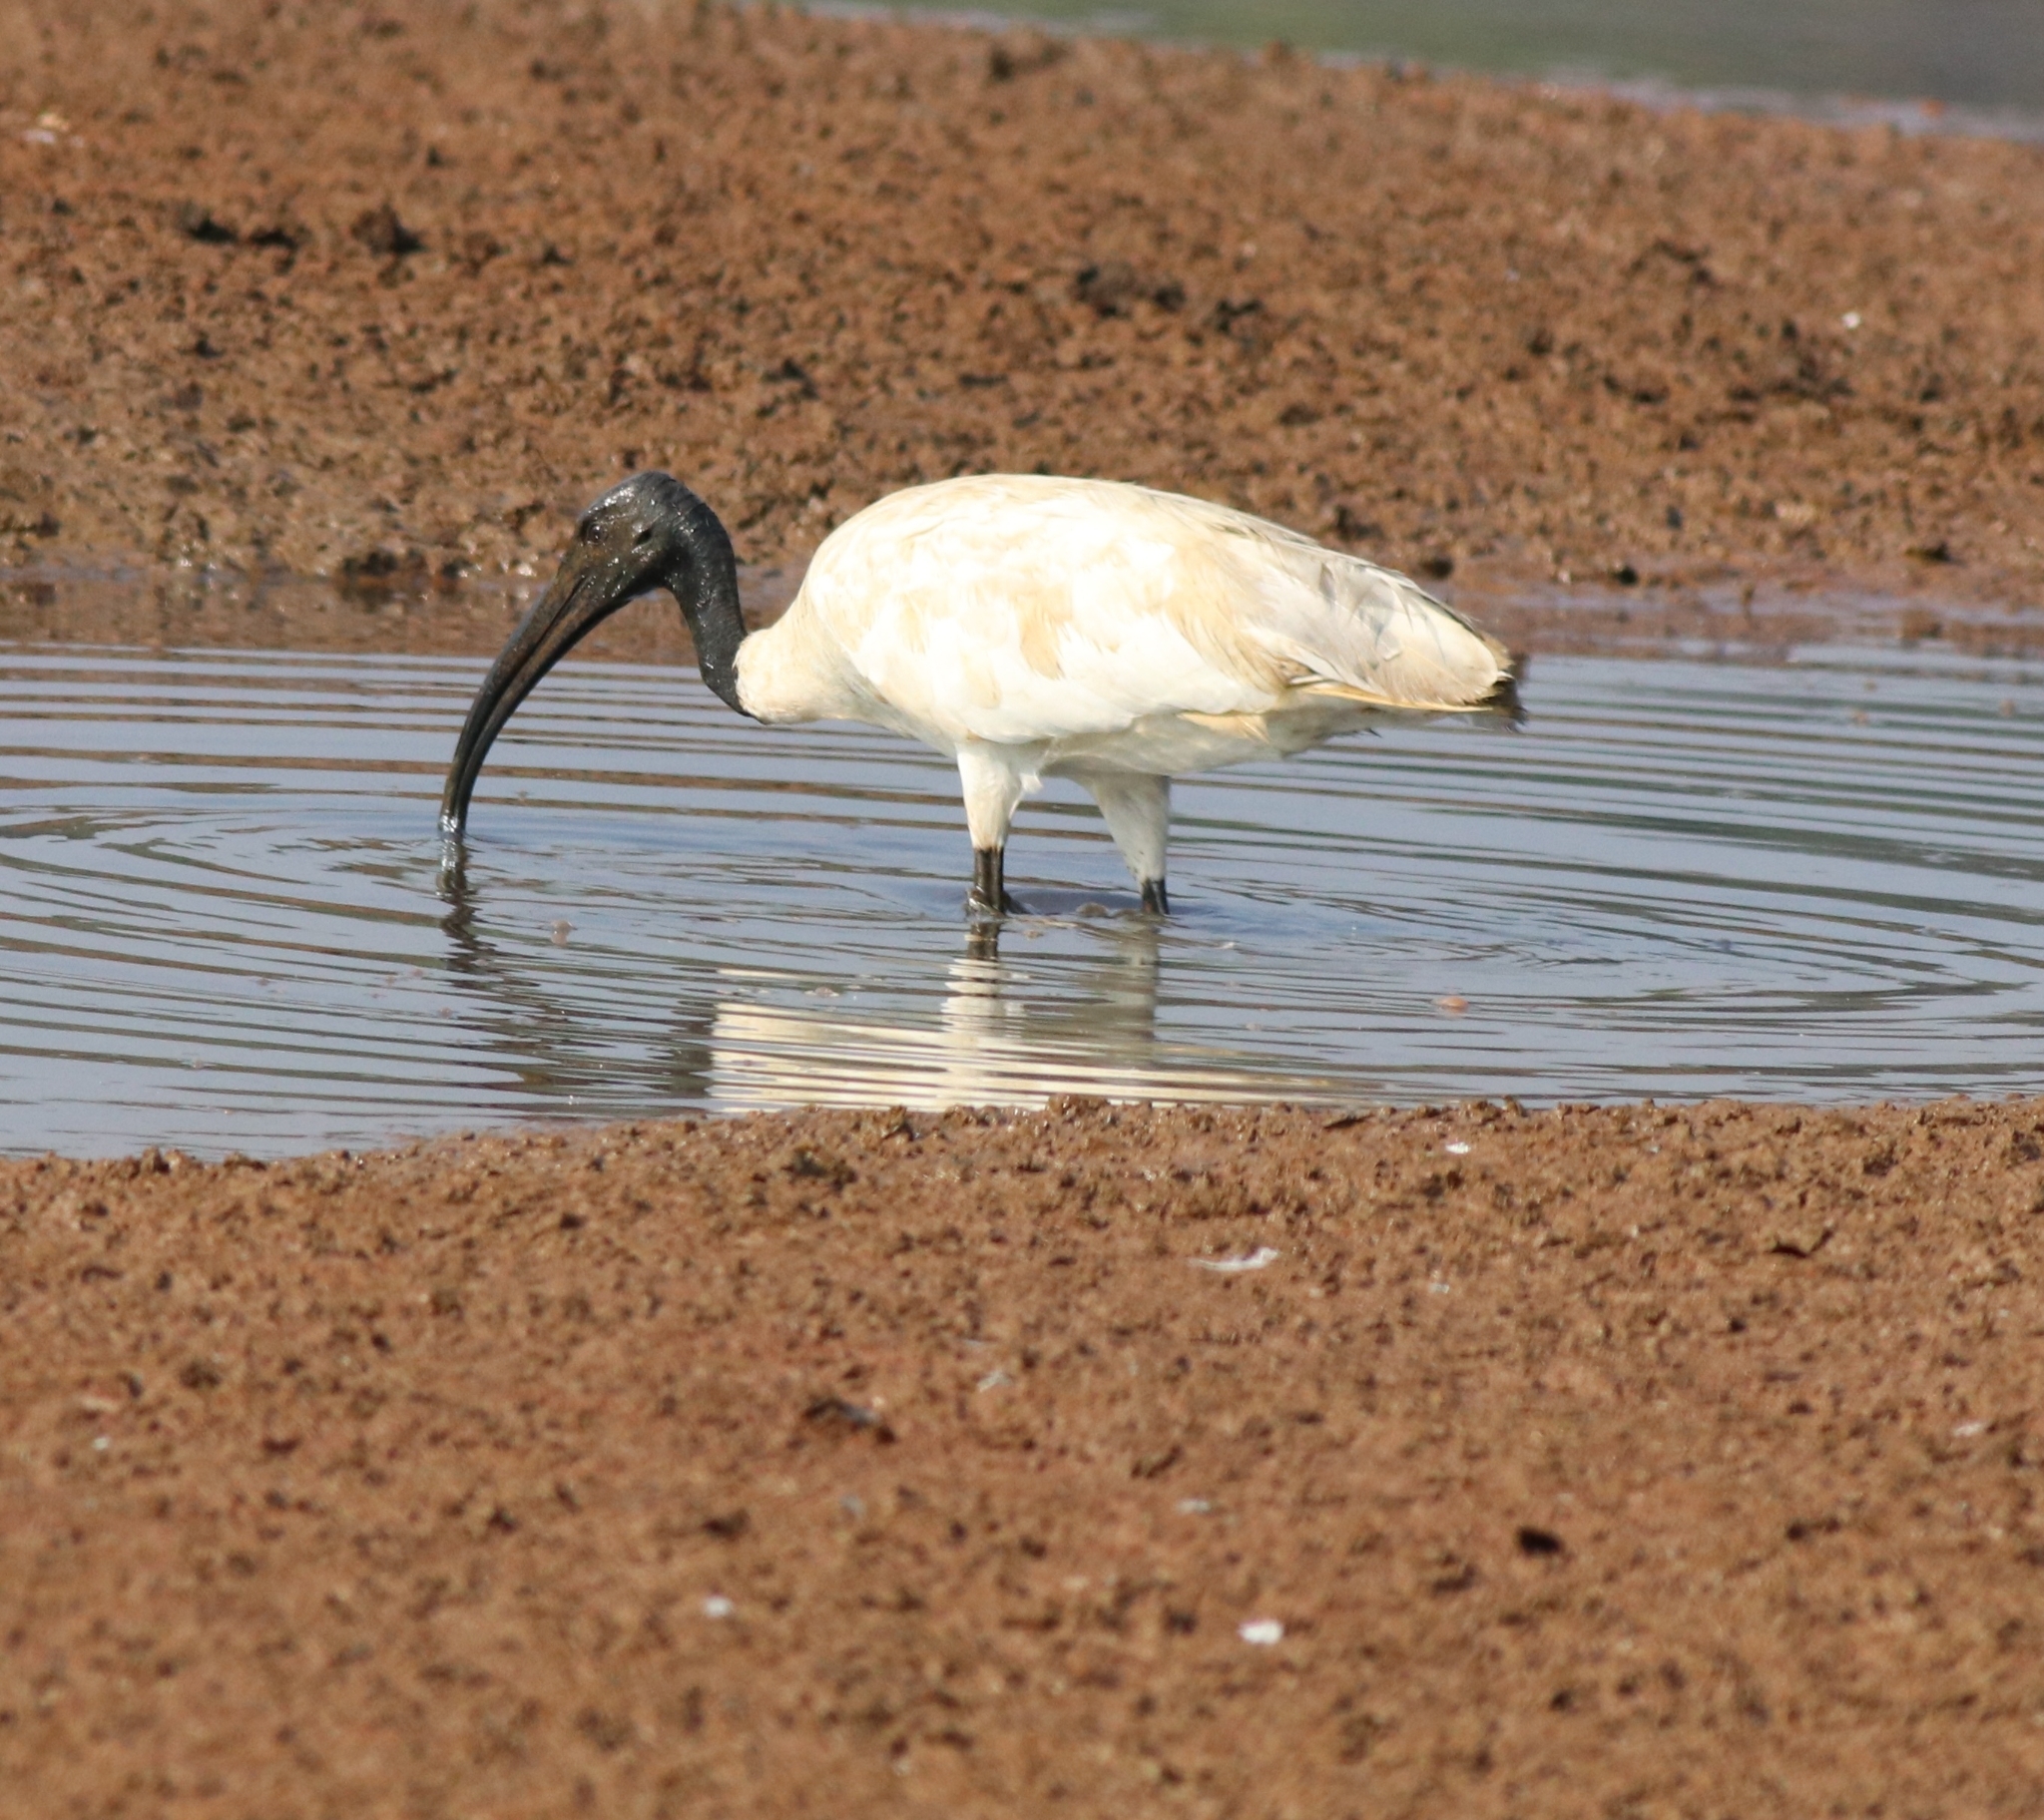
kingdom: Animalia
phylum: Chordata
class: Aves
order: Pelecaniformes
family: Threskiornithidae
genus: Threskiornis
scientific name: Threskiornis melanocephalus
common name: Black-headed ibis
